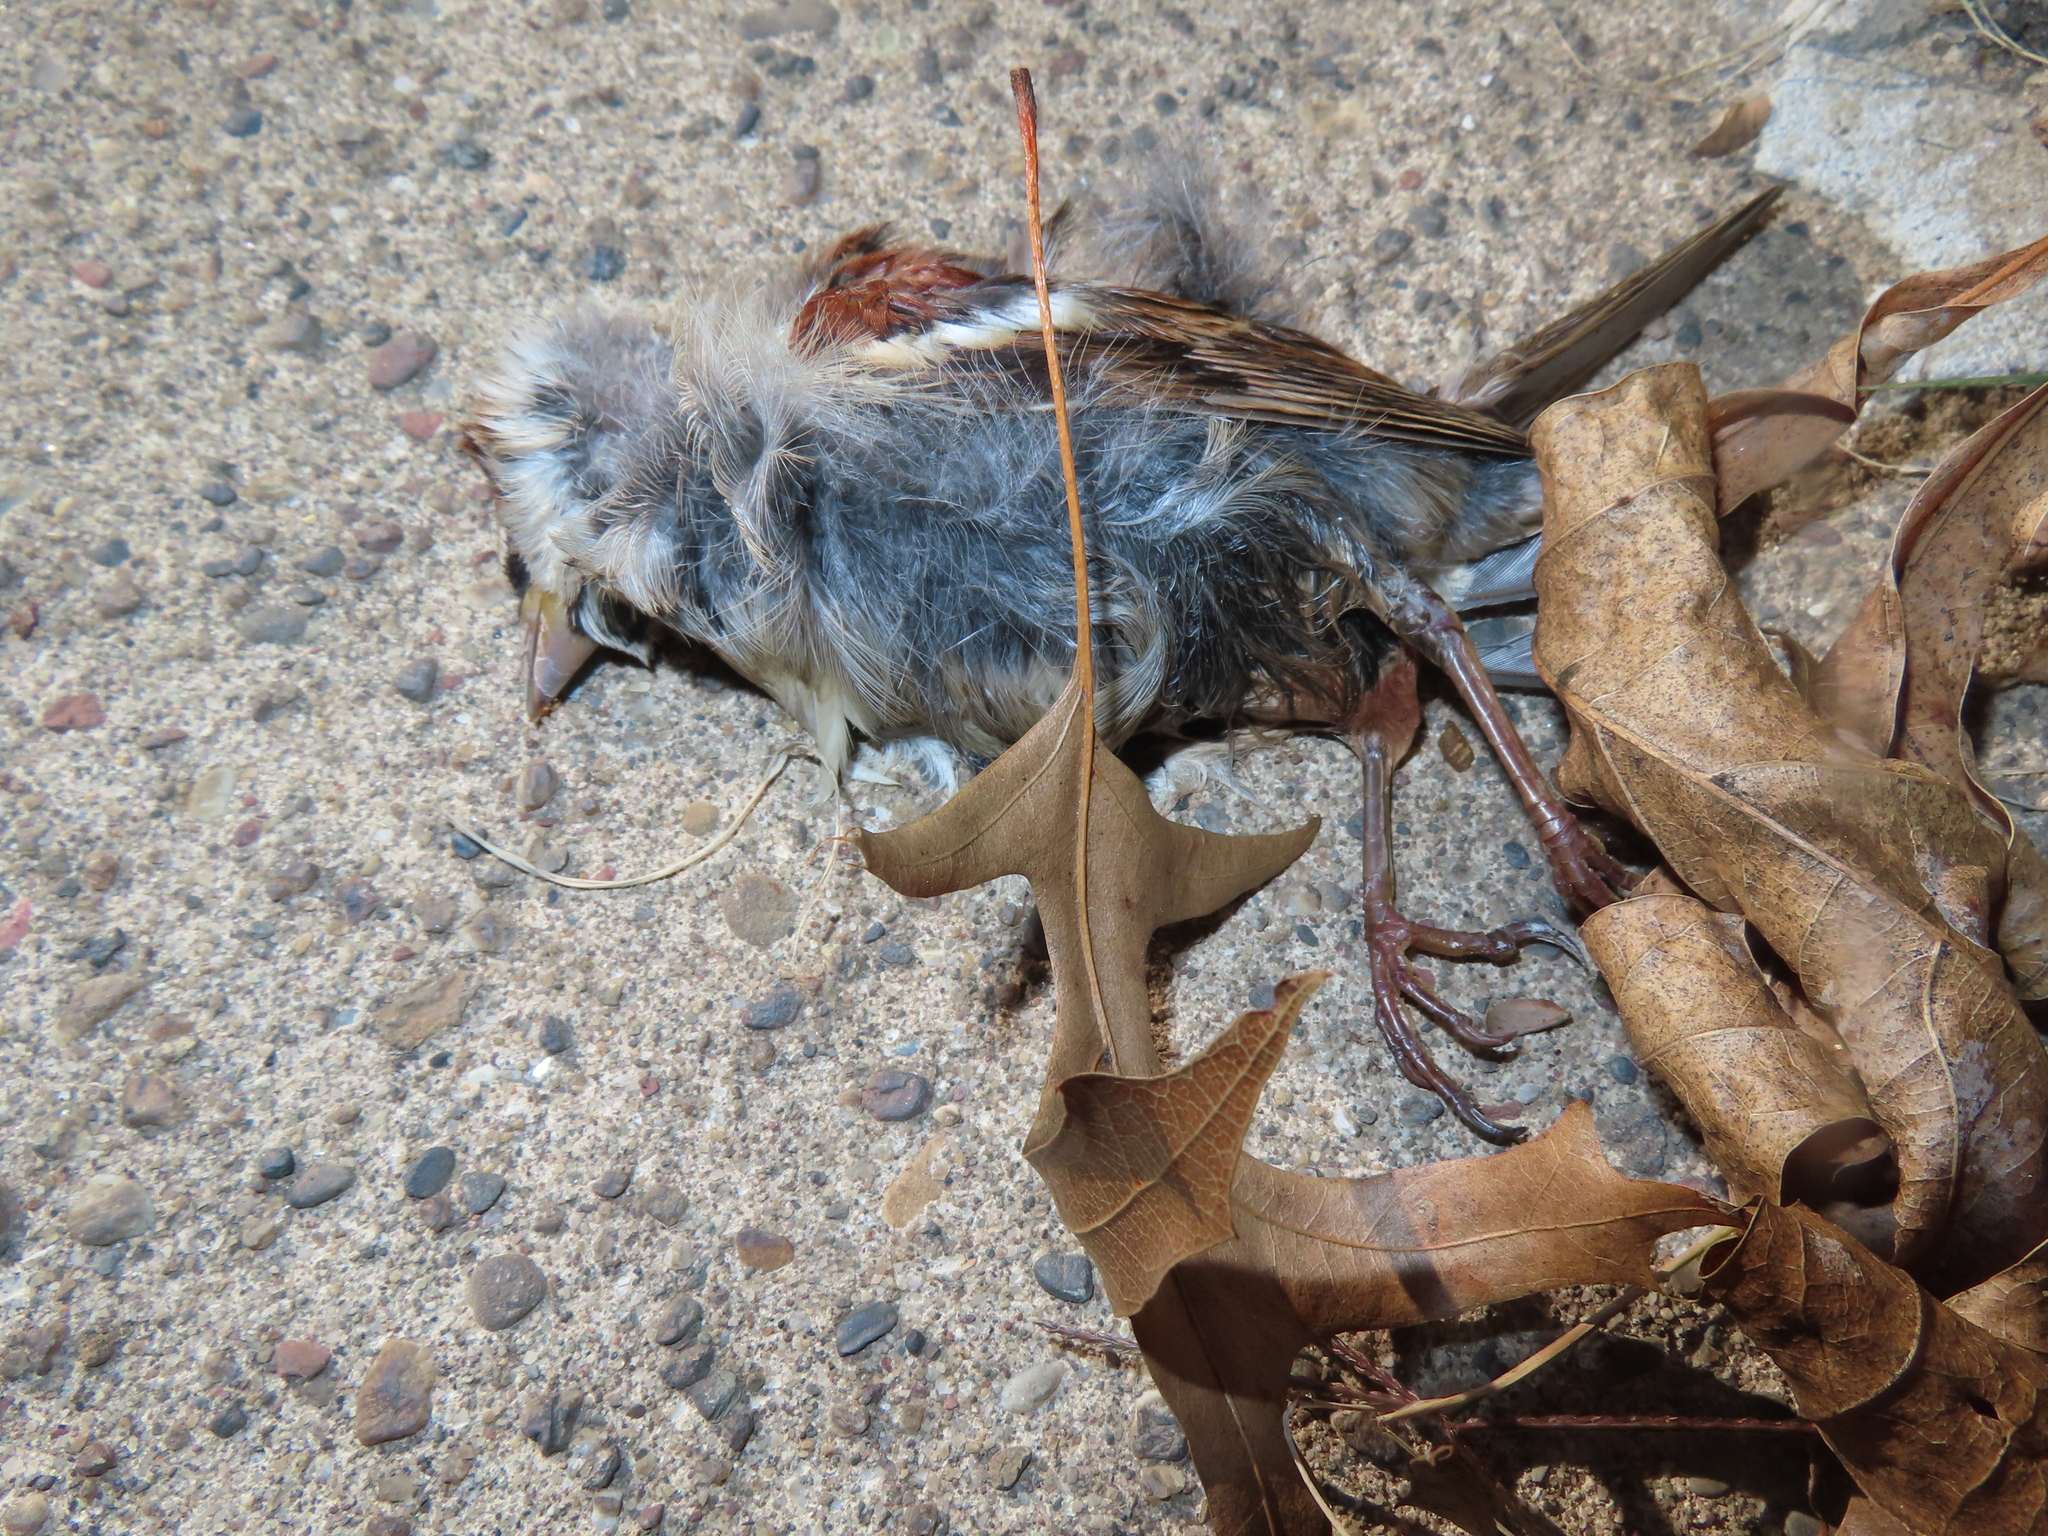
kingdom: Animalia
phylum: Chordata
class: Aves
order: Passeriformes
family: Passeridae
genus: Passer
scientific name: Passer domesticus
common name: House sparrow
